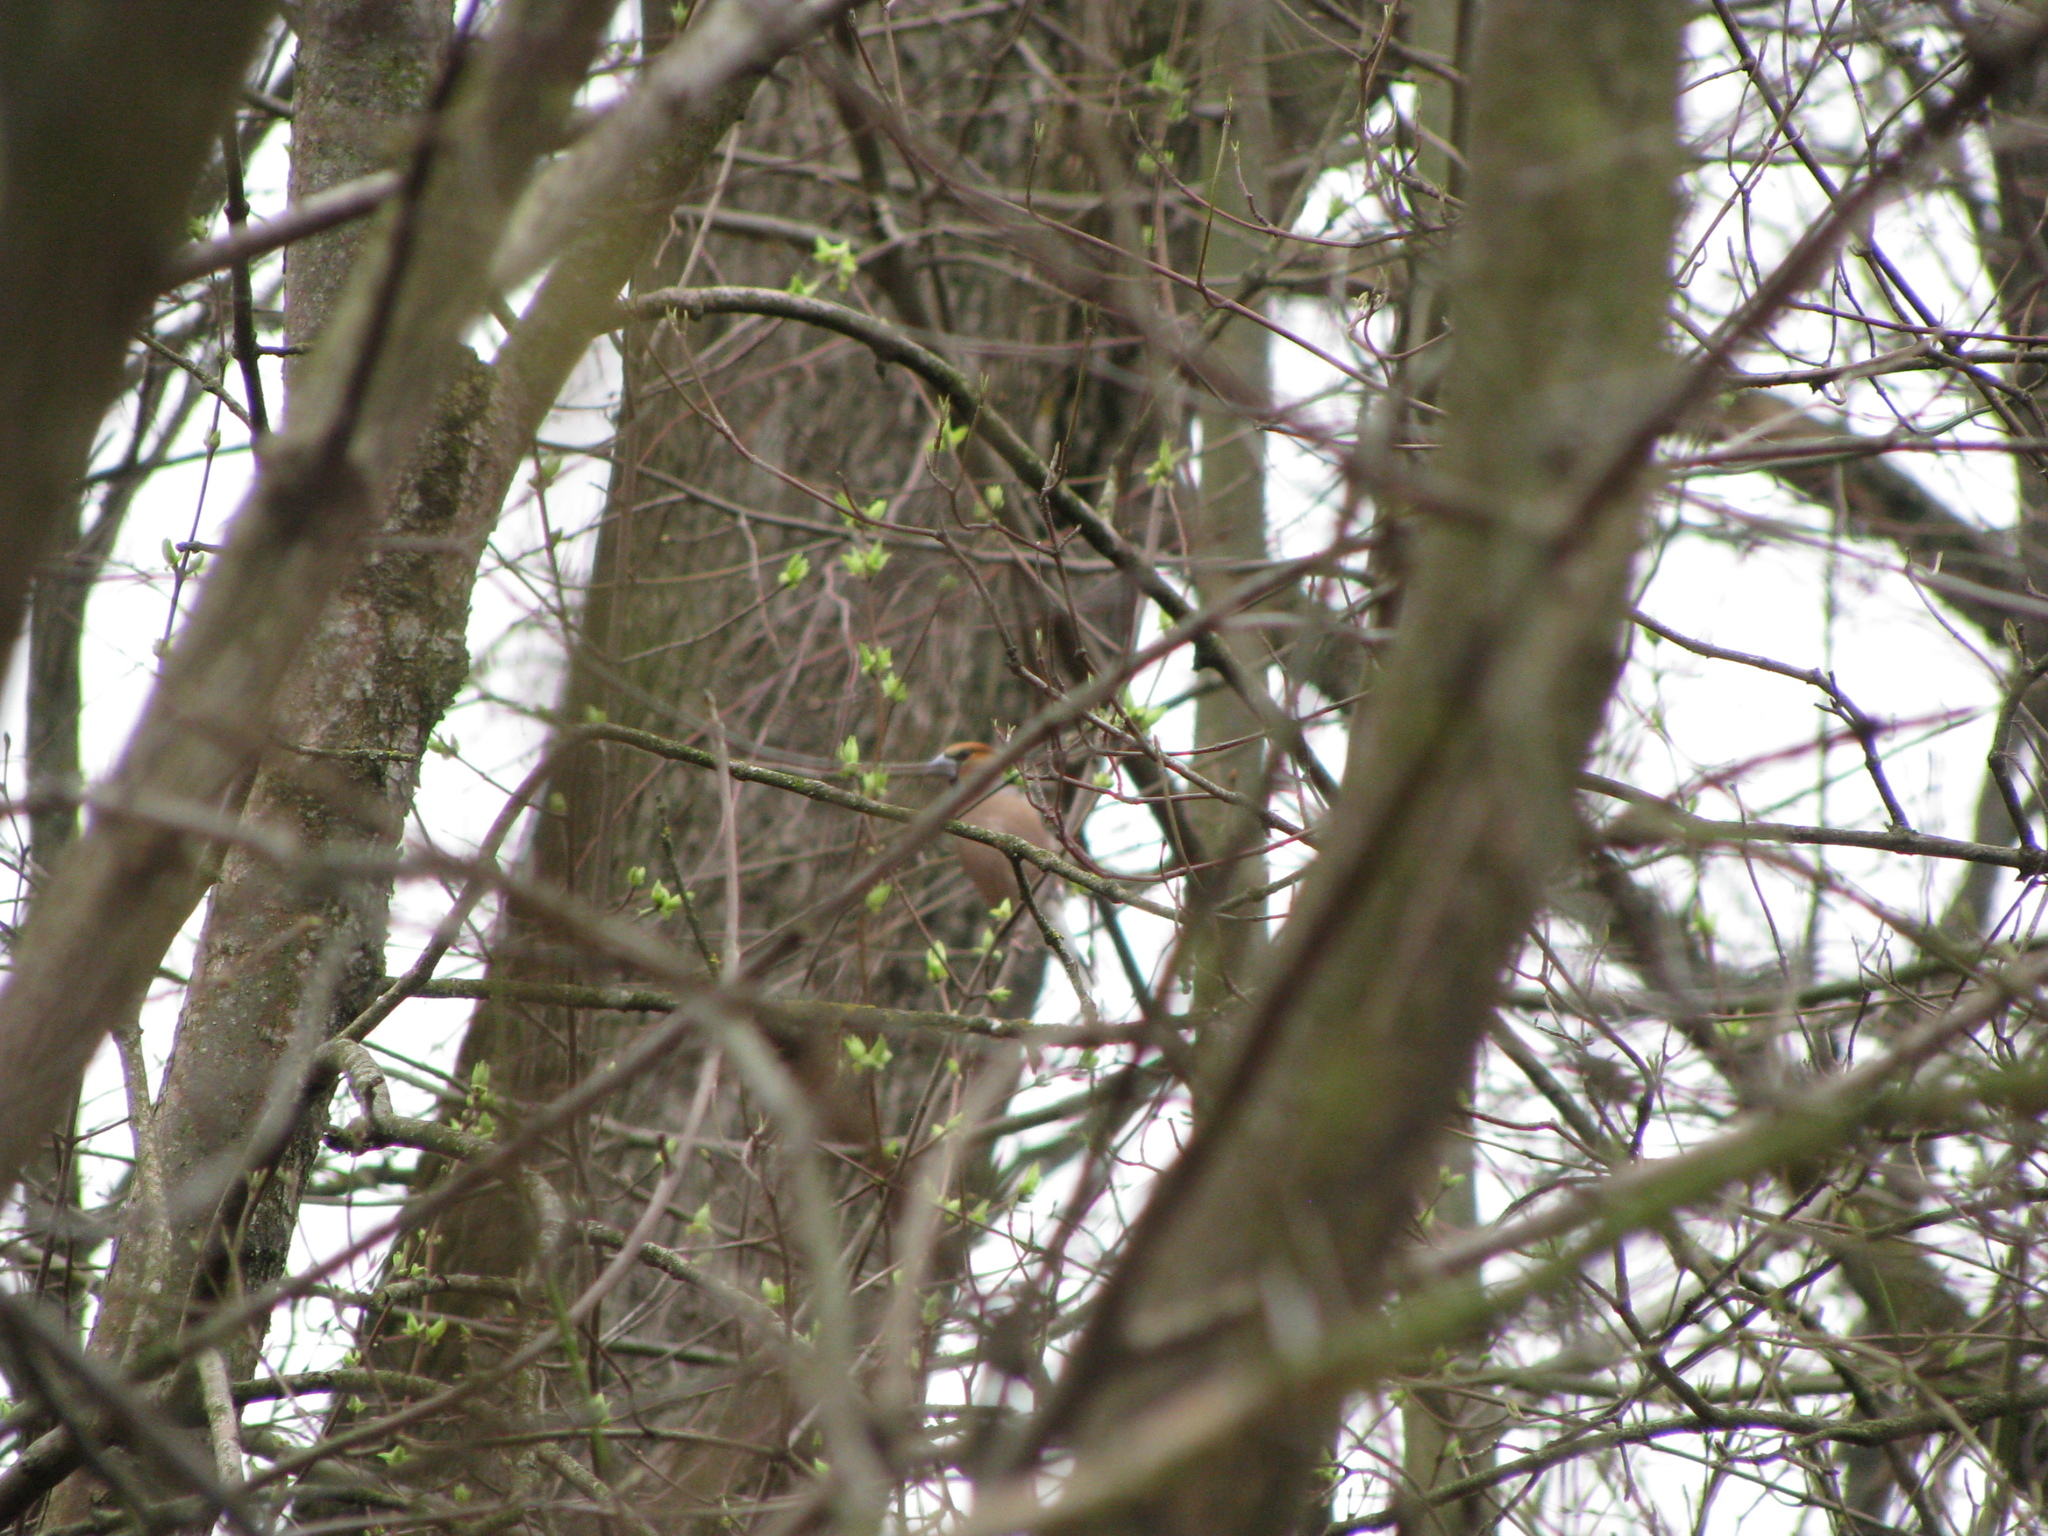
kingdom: Animalia
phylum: Chordata
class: Aves
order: Passeriformes
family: Fringillidae
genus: Coccothraustes
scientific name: Coccothraustes coccothraustes
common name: Hawfinch
